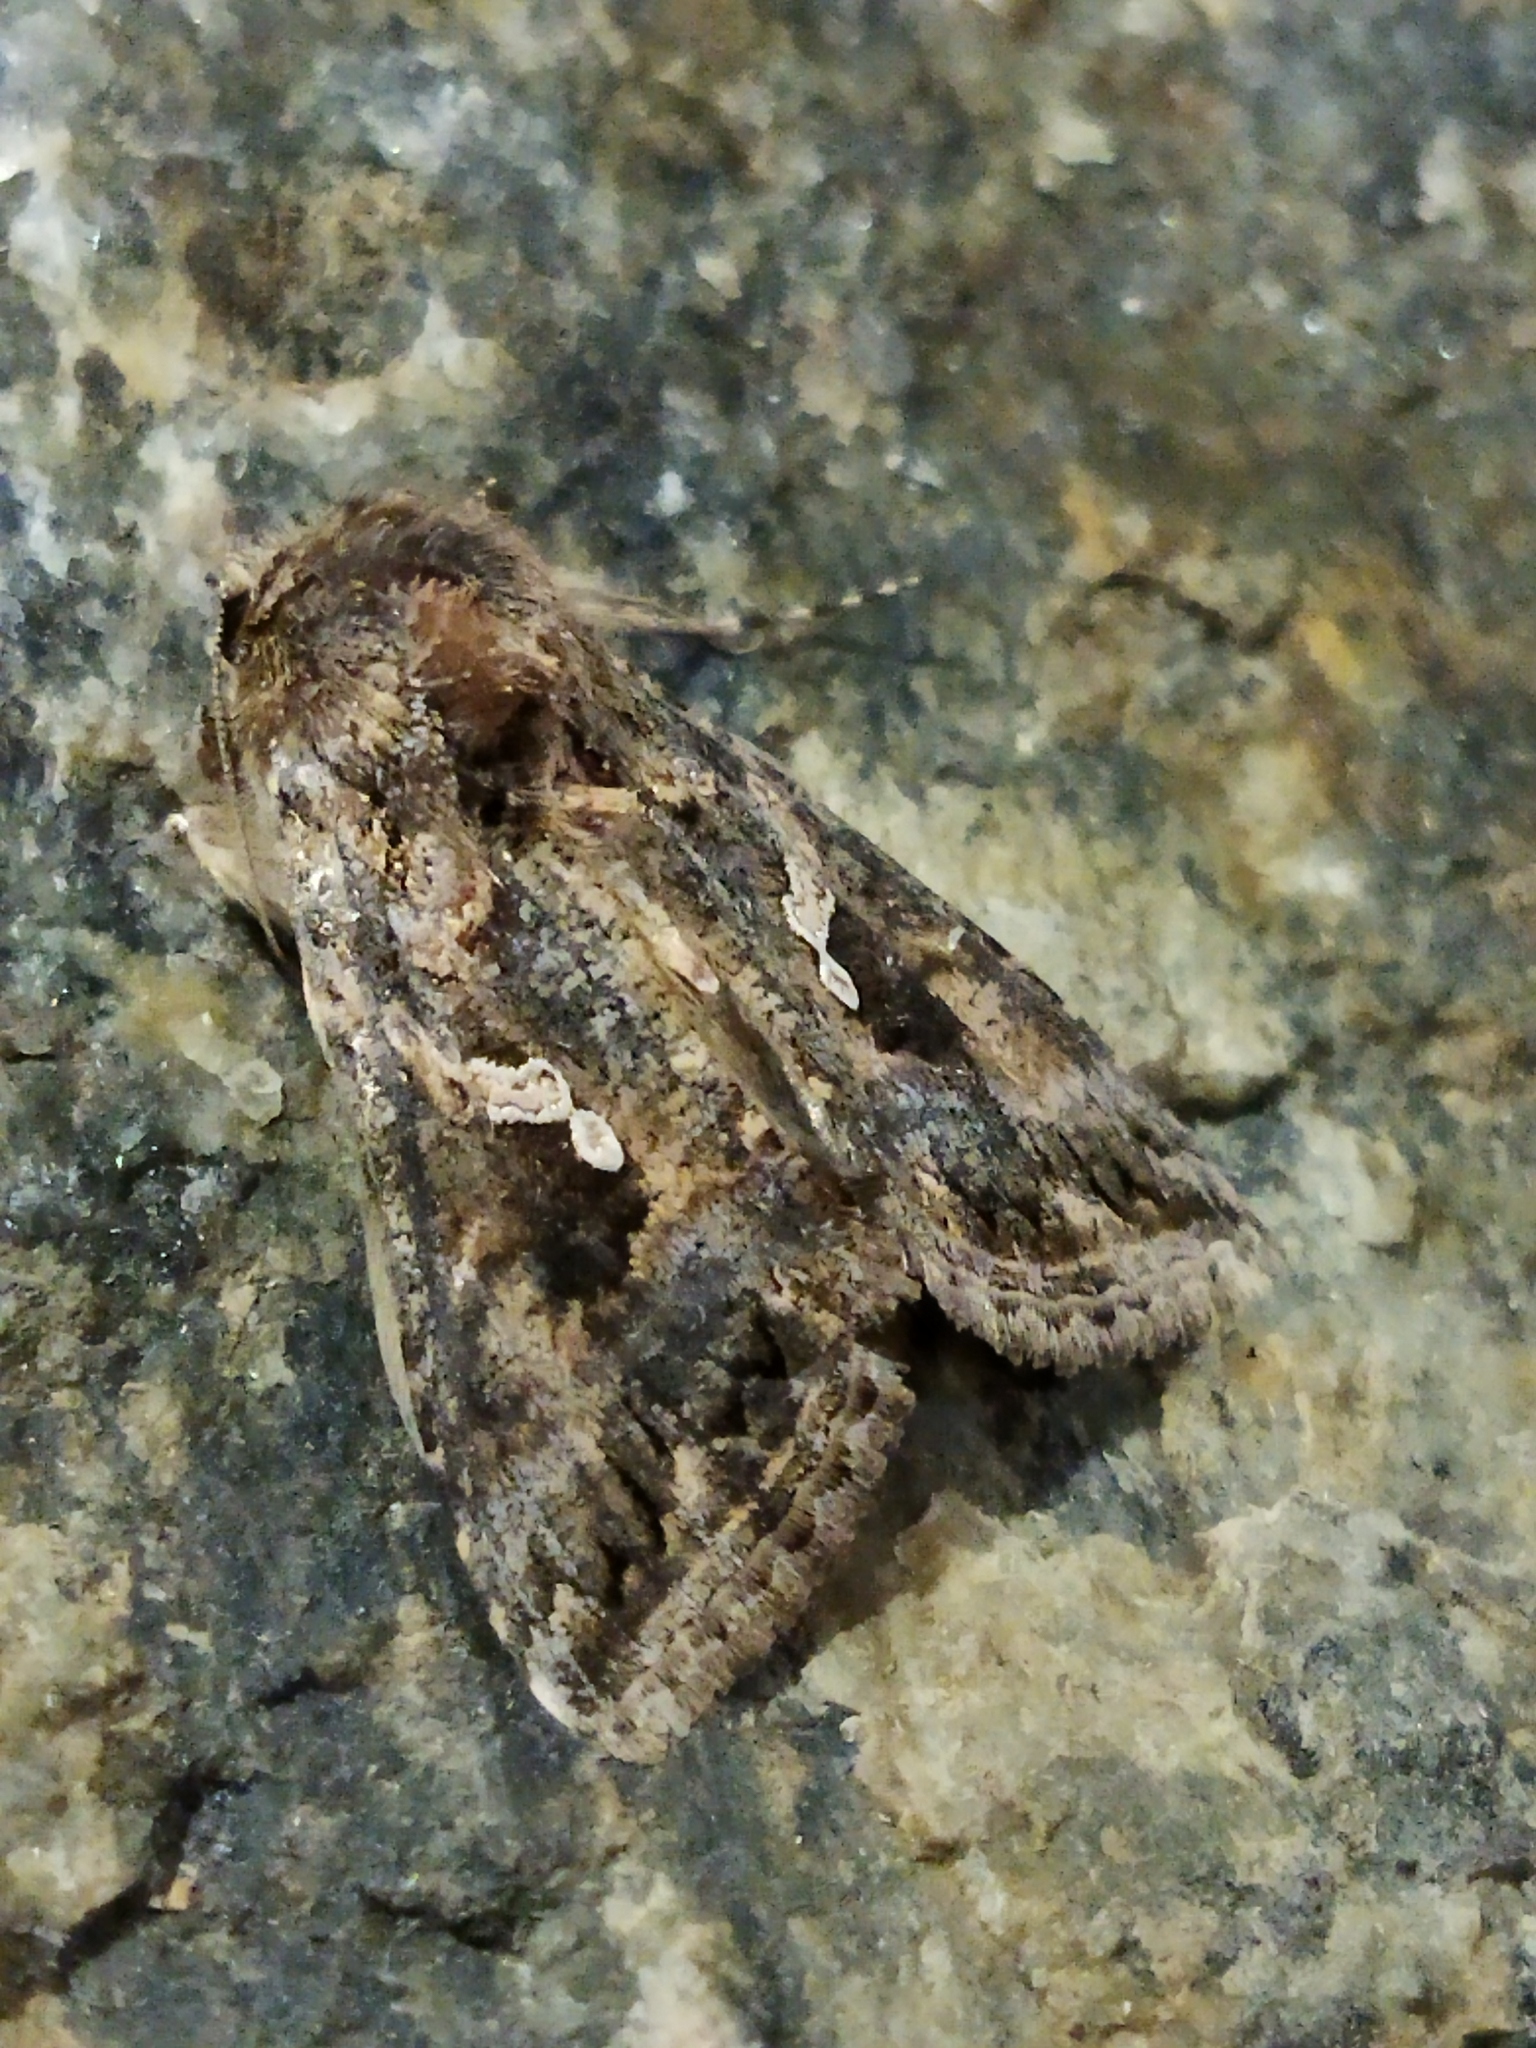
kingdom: Animalia
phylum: Arthropoda
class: Insecta
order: Lepidoptera
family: Noctuidae
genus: Trichoplusia
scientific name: Trichoplusia ni
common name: Ni moth
